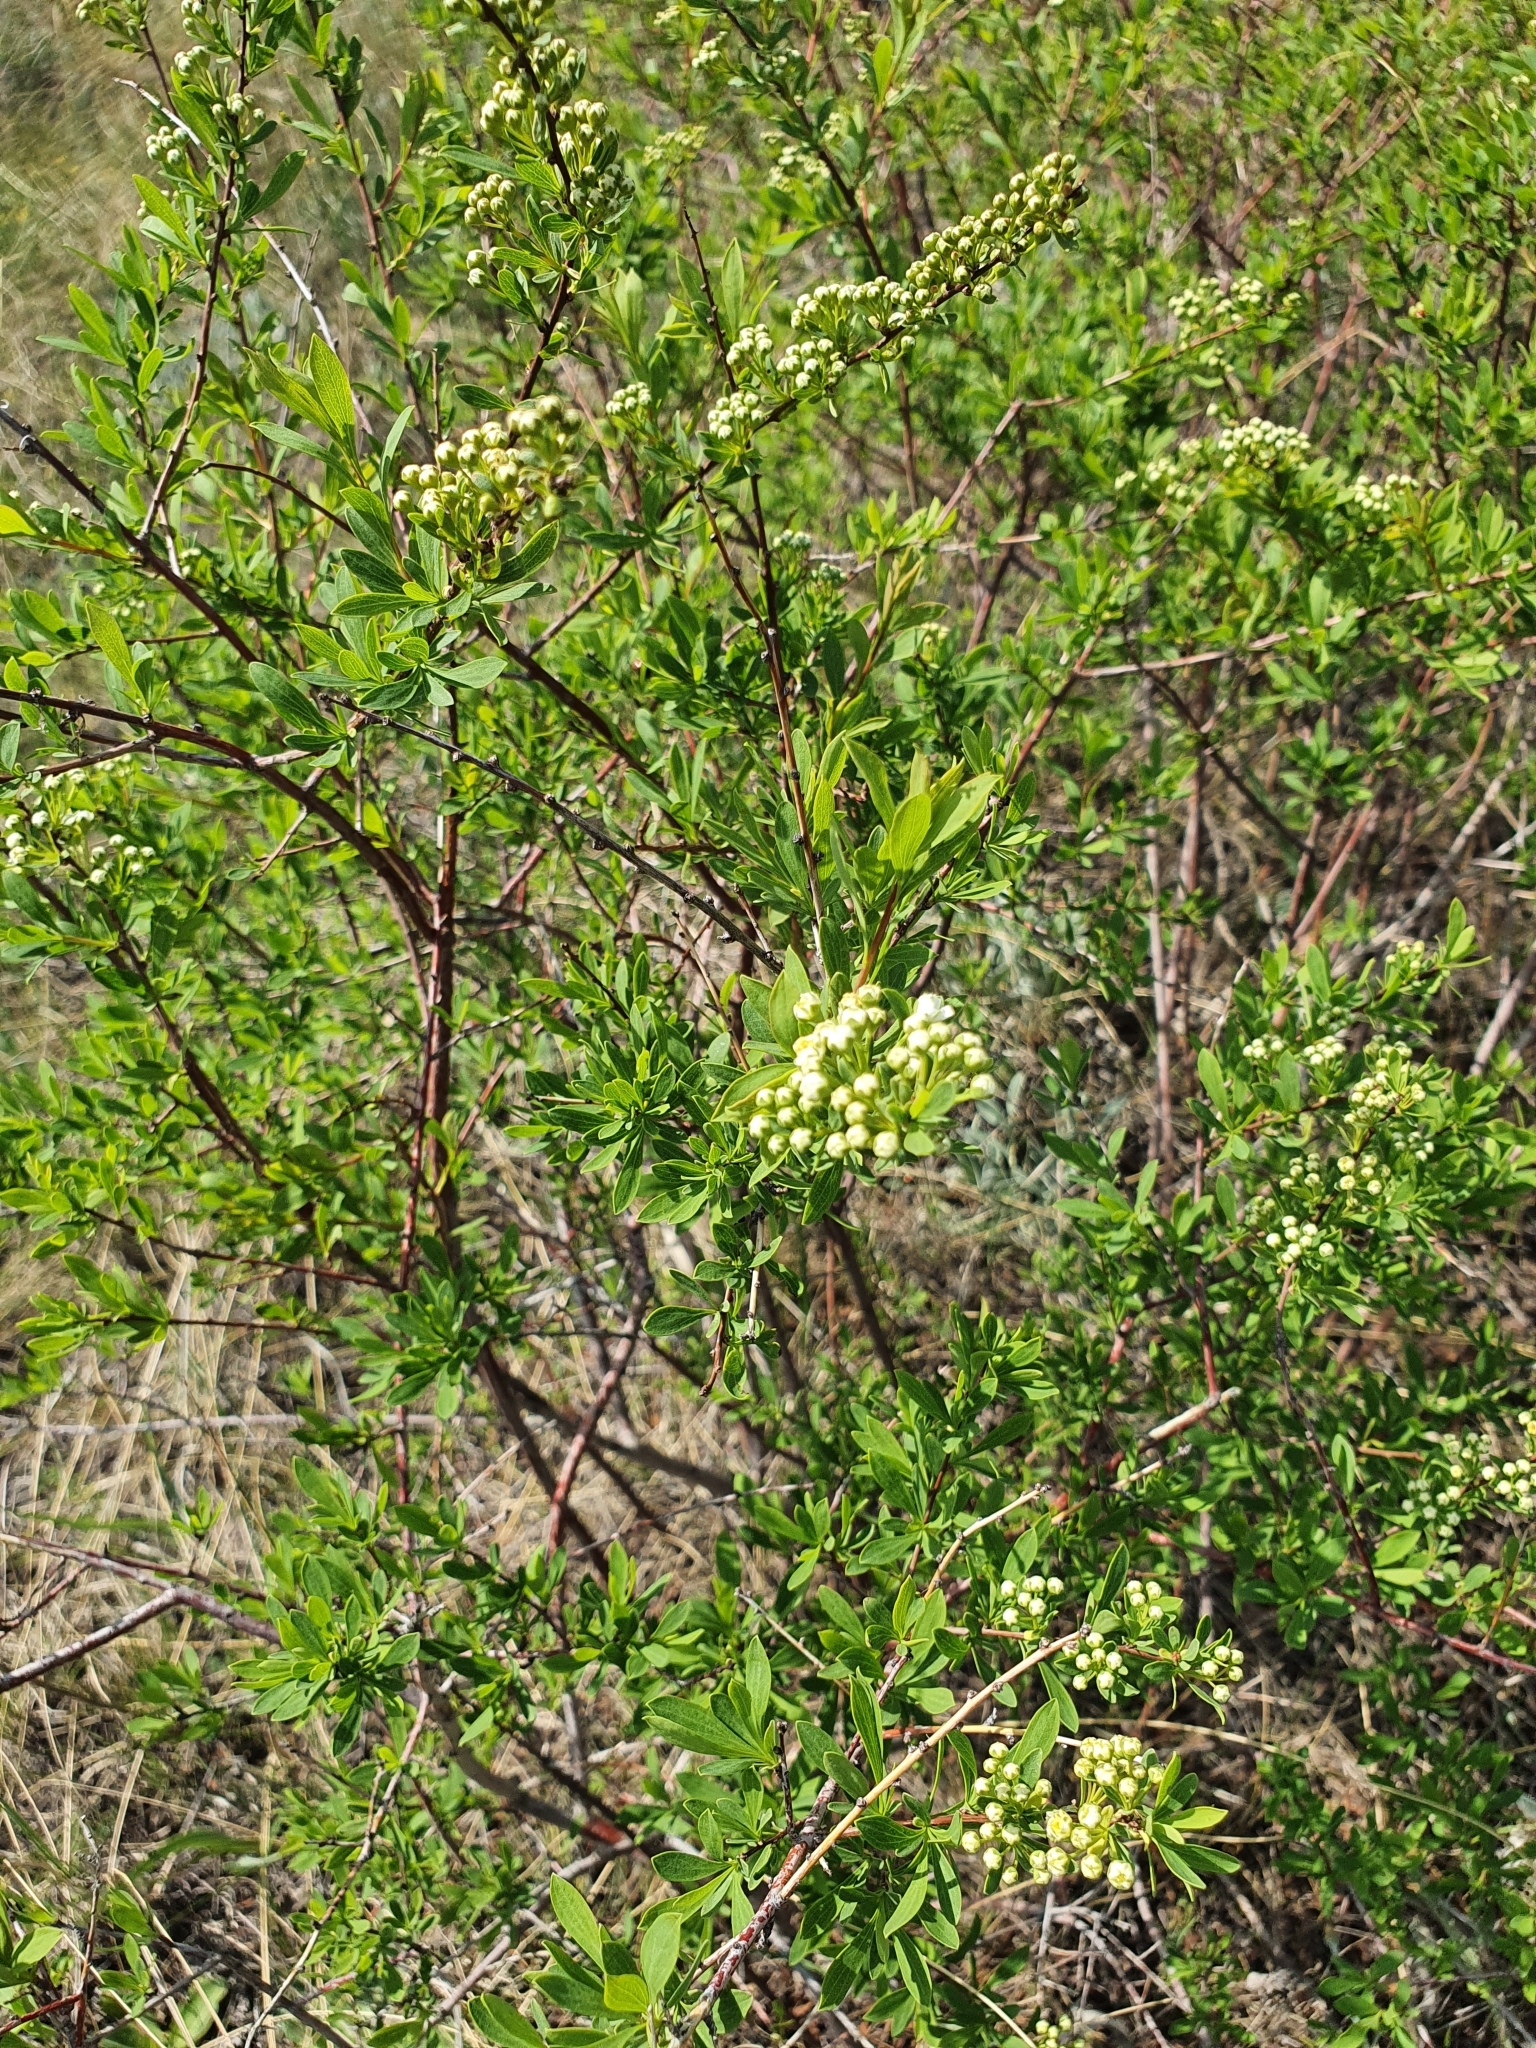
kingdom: Plantae
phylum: Tracheophyta
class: Magnoliopsida
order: Rosales
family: Rosaceae
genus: Spiraea
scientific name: Spiraea hypericifolia
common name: Iberian spirea
